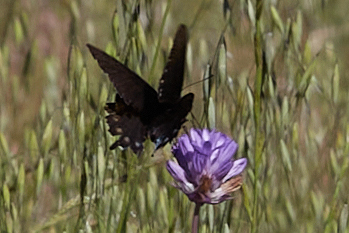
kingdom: Animalia
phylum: Arthropoda
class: Insecta
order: Lepidoptera
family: Papilionidae
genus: Battus
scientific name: Battus philenor
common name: Pipevine swallowtail
